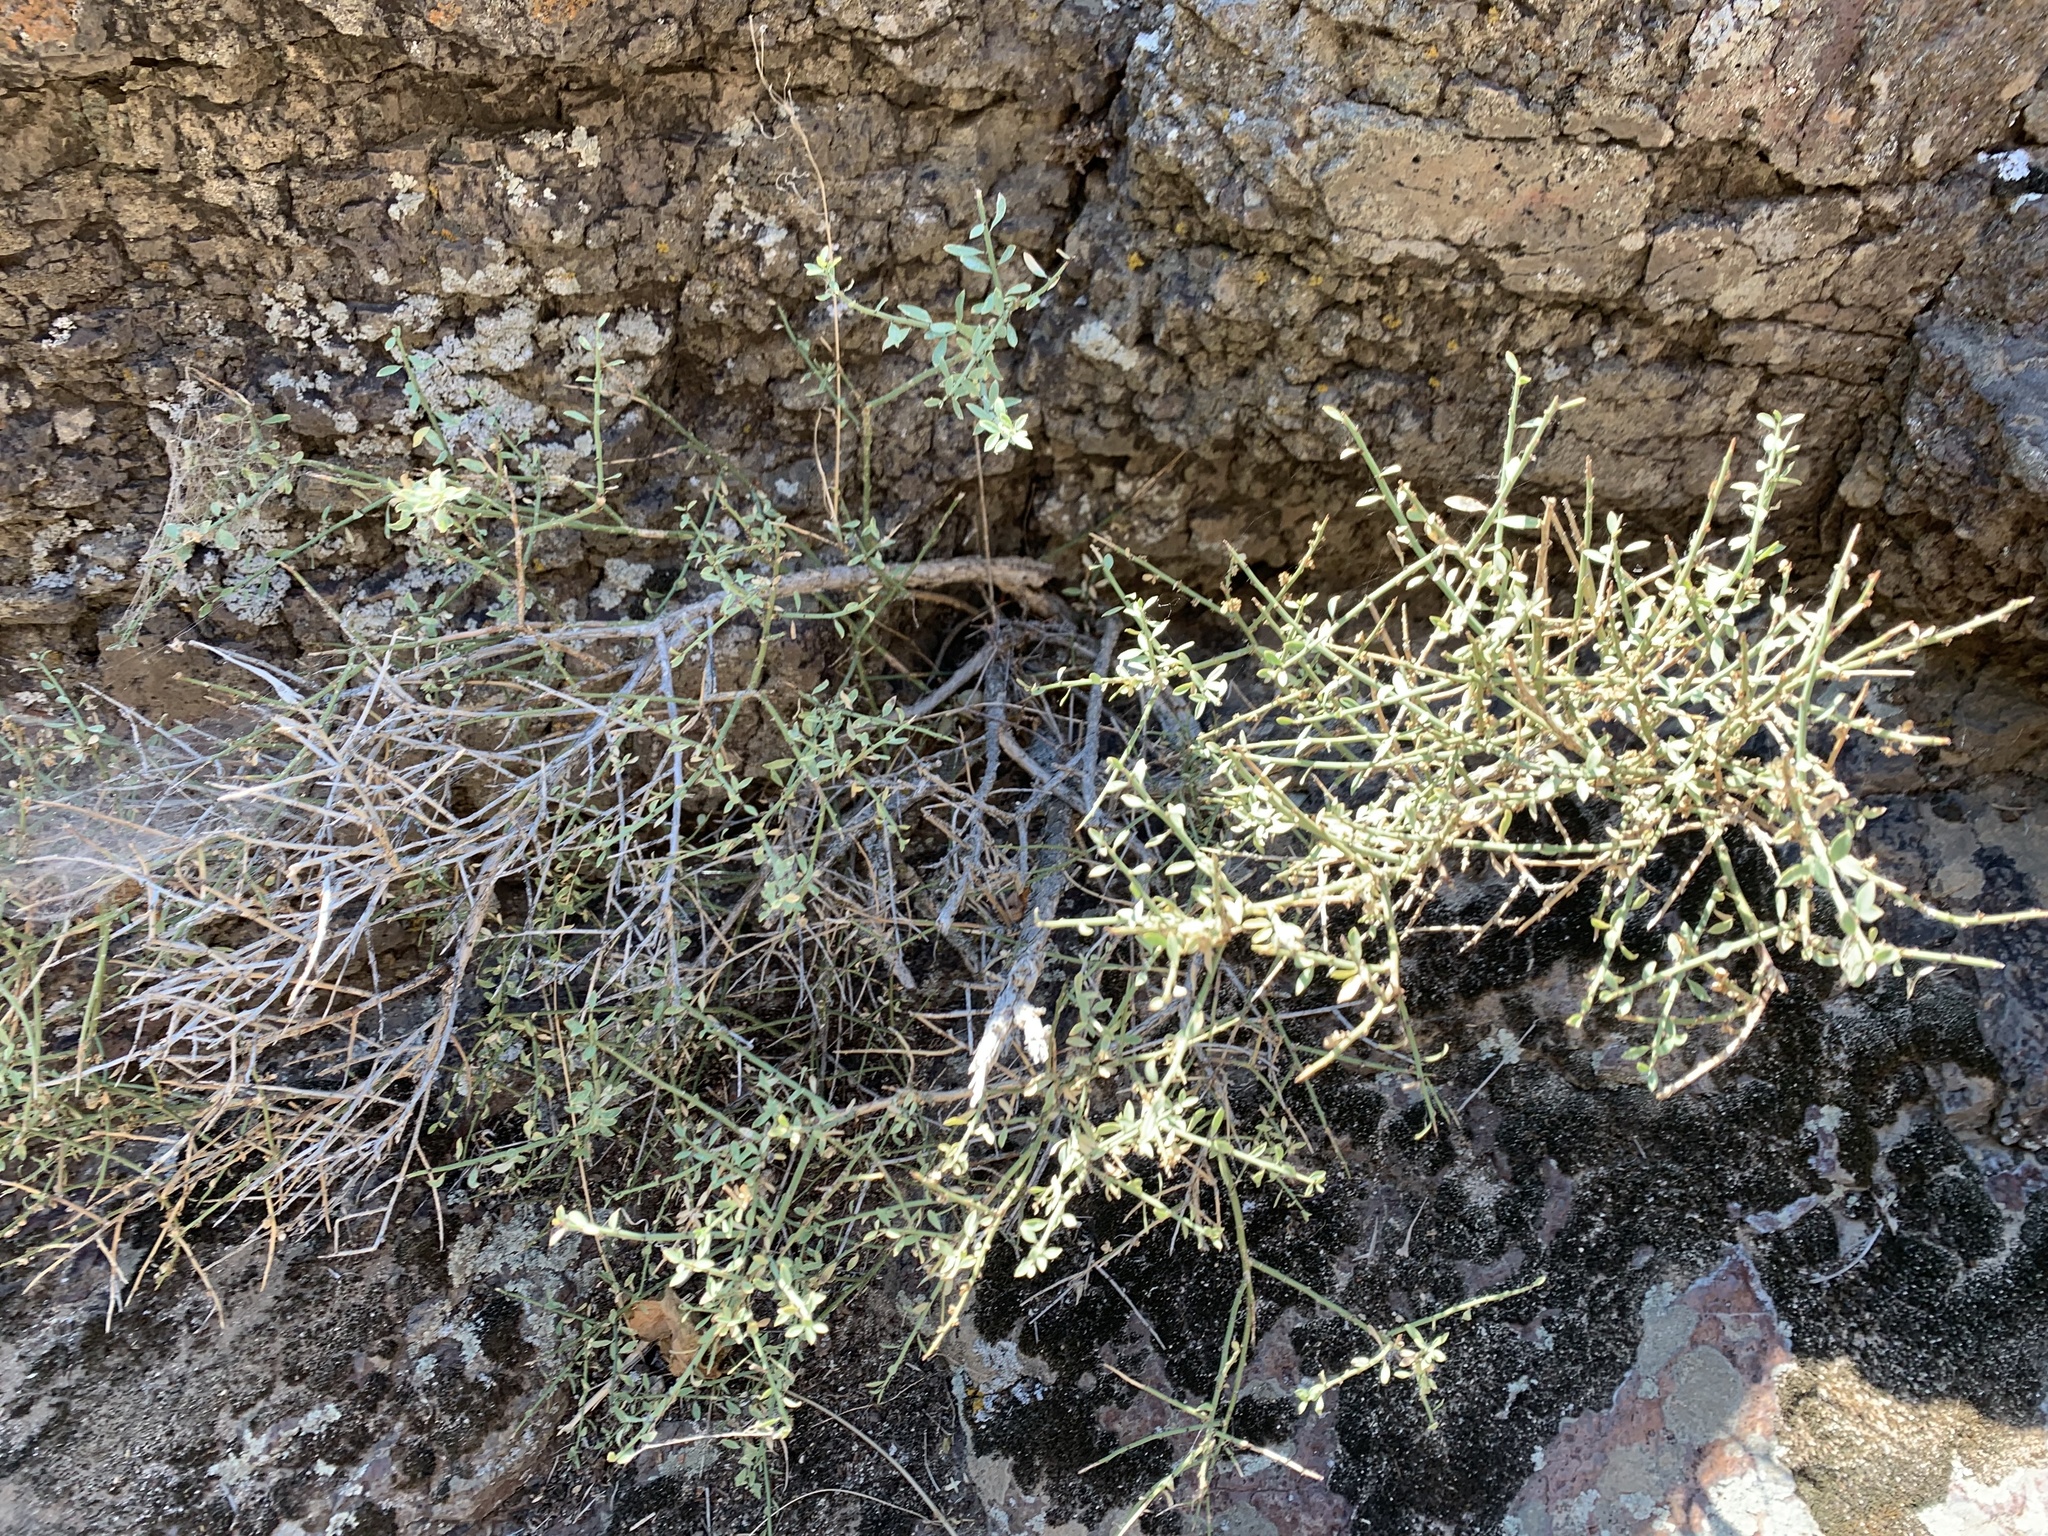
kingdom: Plantae
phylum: Tracheophyta
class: Magnoliopsida
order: Crossosomatales
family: Crossosomataceae
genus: Glossopetalon
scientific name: Glossopetalon spinescens
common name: Spring greasebush
